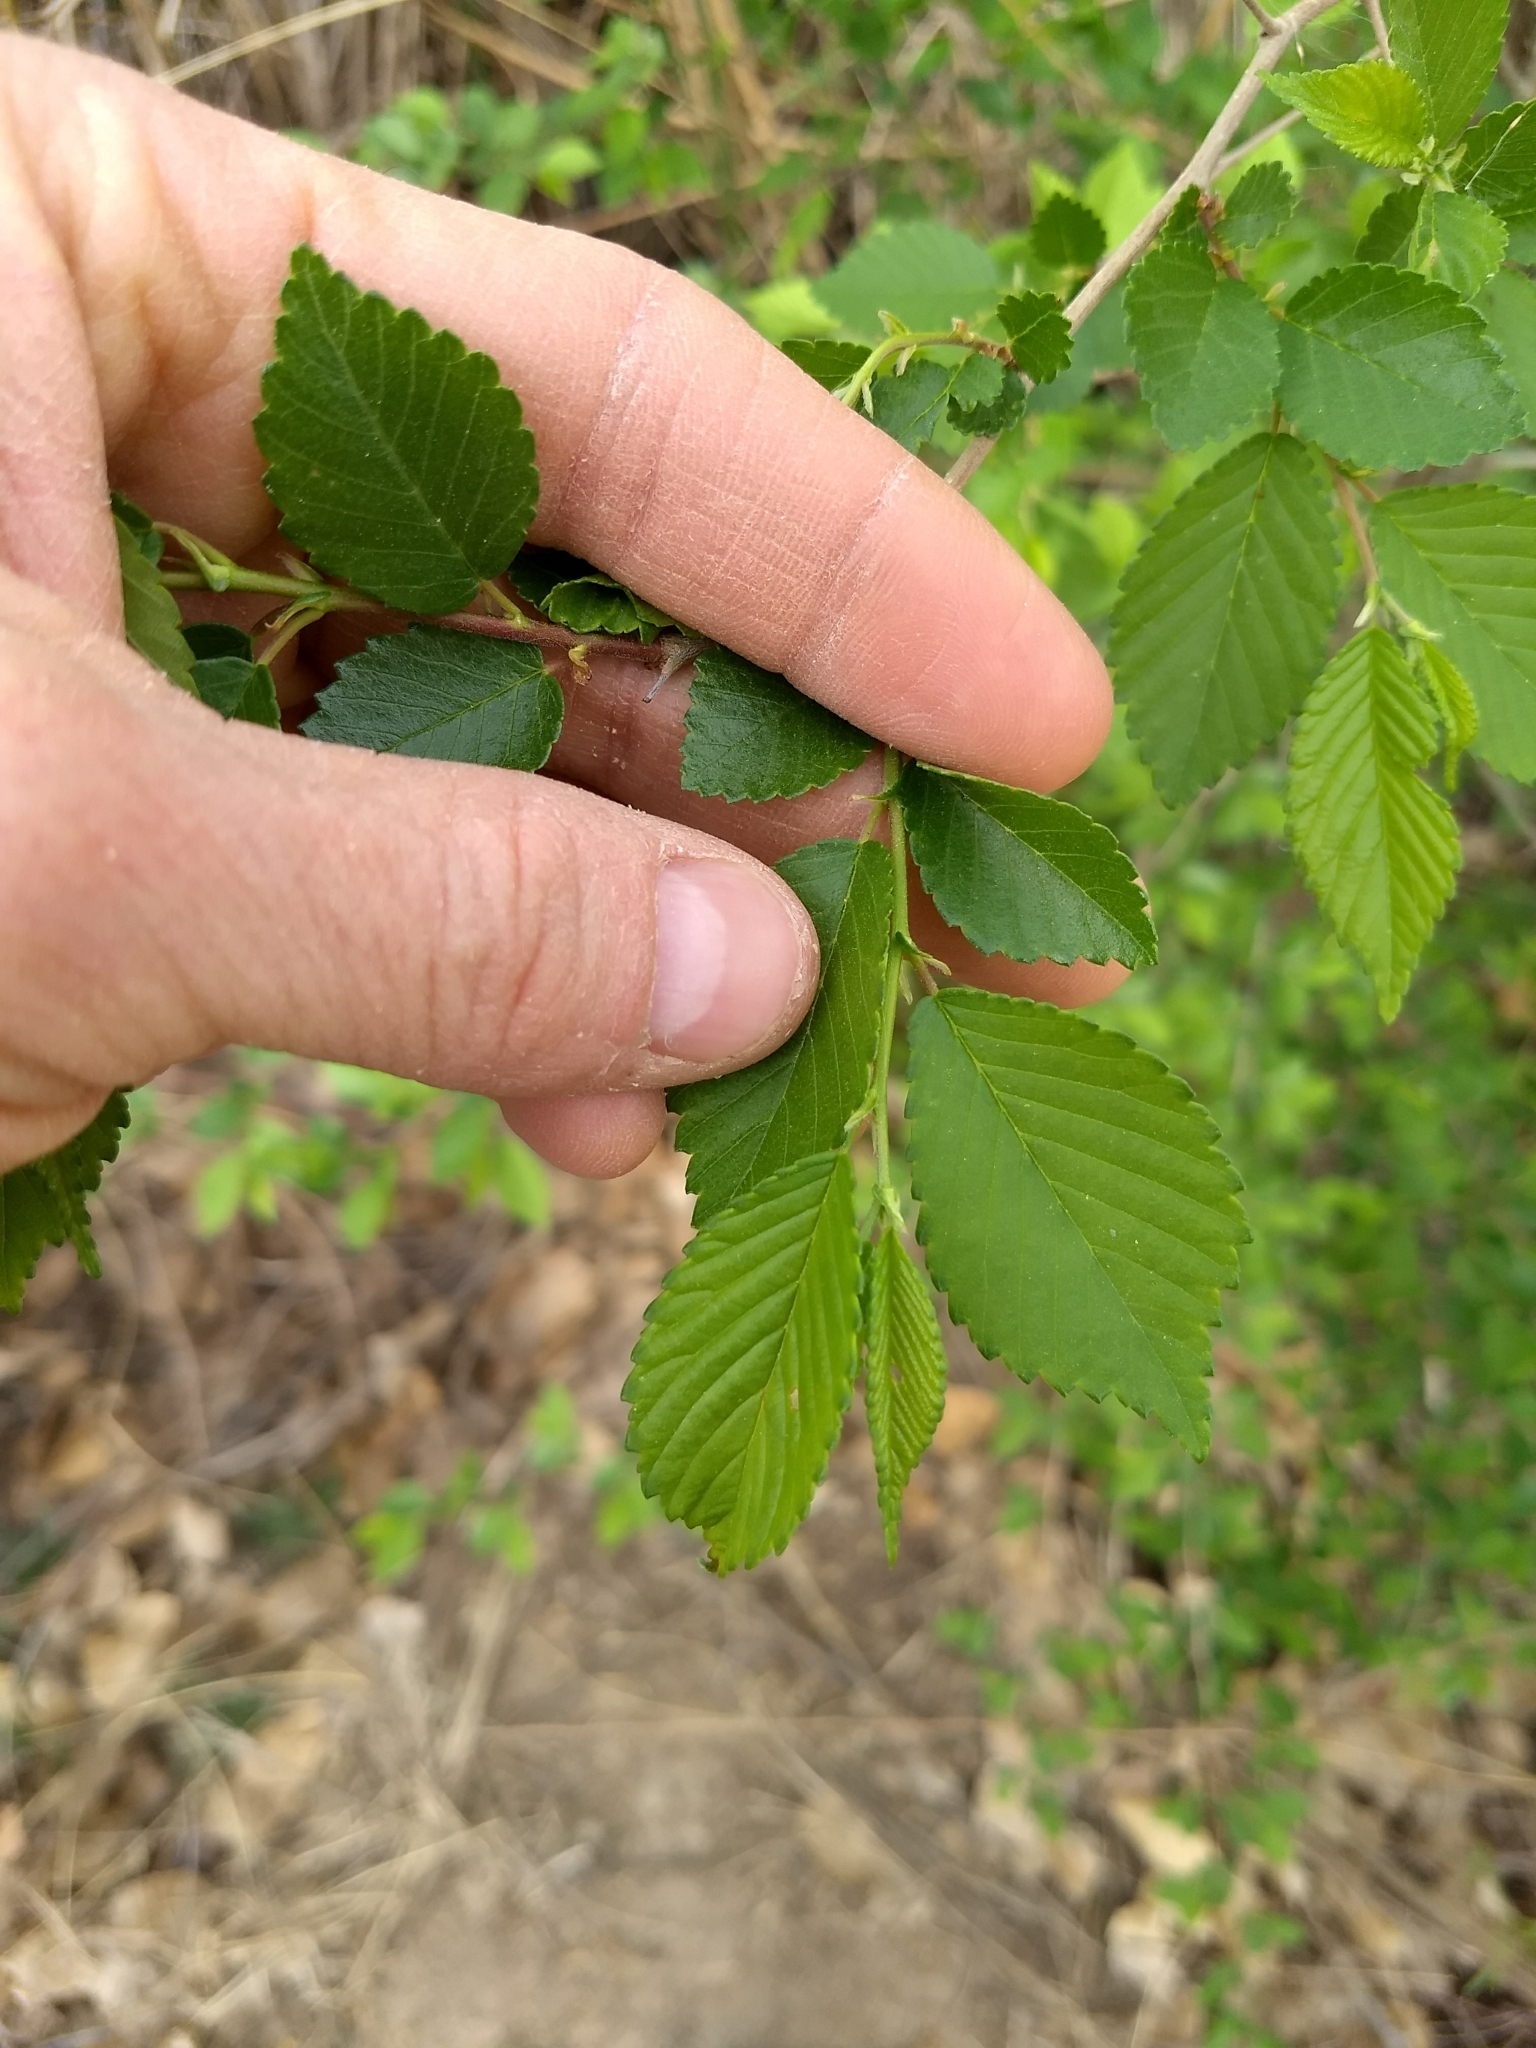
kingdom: Plantae
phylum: Tracheophyta
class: Magnoliopsida
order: Rosales
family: Ulmaceae
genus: Ulmus
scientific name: Ulmus pumila
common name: Siberian elm
